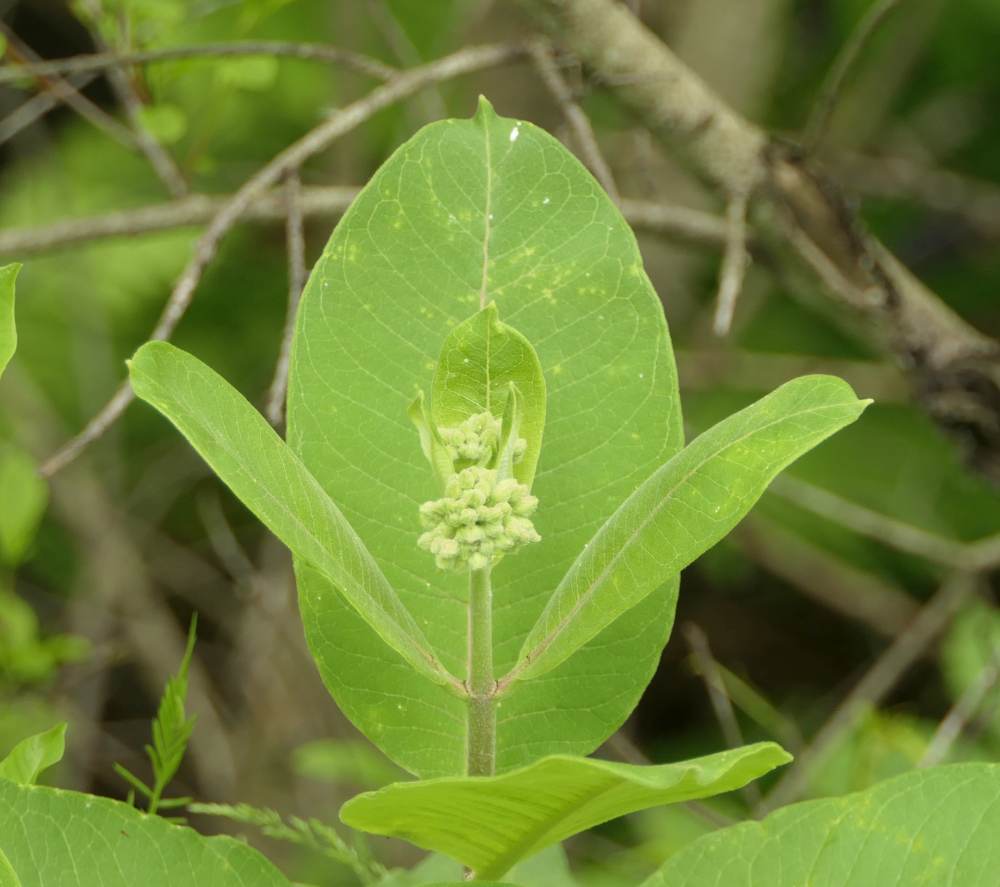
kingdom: Plantae
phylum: Tracheophyta
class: Magnoliopsida
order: Gentianales
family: Apocynaceae
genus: Asclepias
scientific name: Asclepias syriaca
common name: Common milkweed
